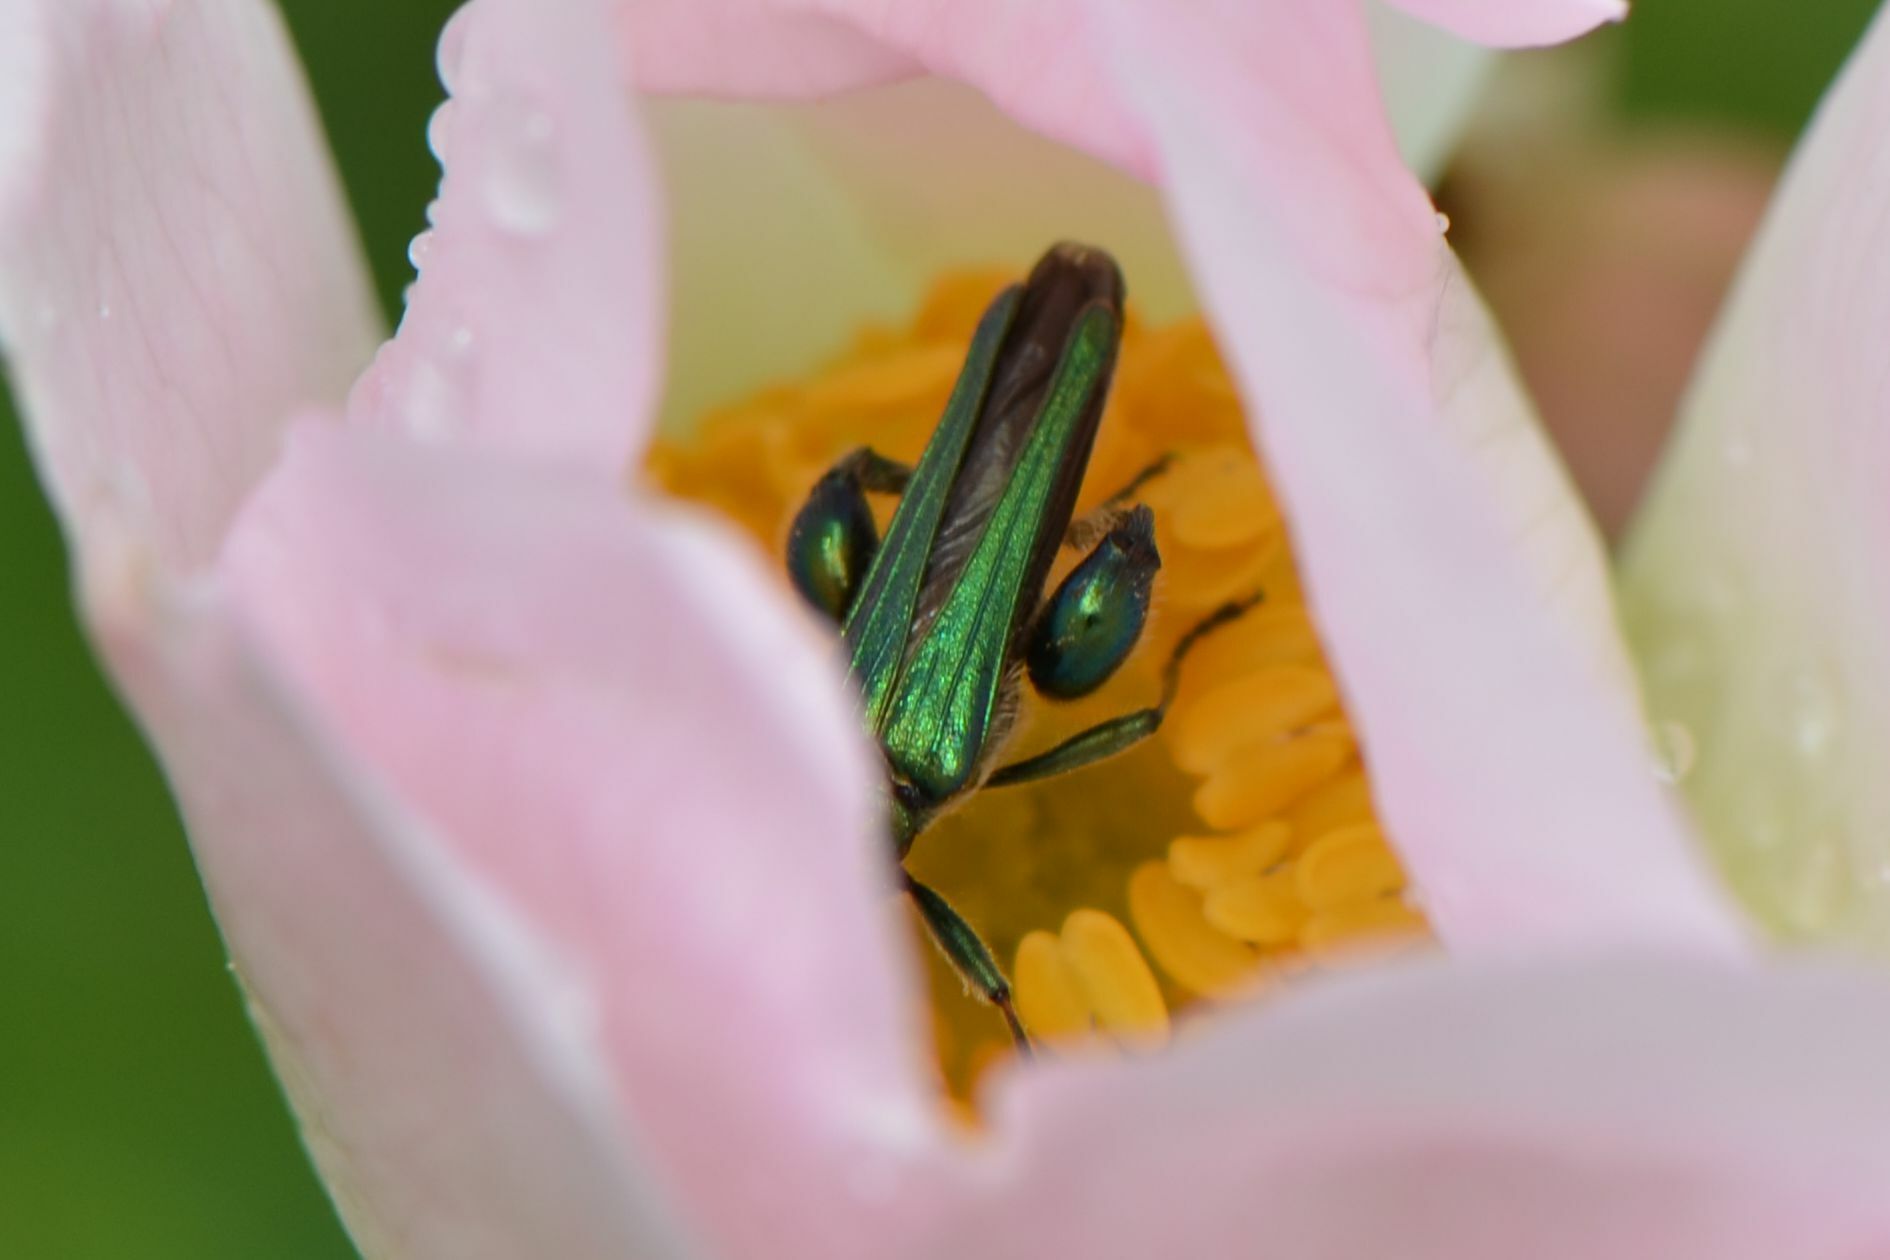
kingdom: Animalia
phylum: Arthropoda
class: Insecta
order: Coleoptera
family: Oedemeridae
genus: Oedemera
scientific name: Oedemera nobilis
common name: Swollen-thighed beetle
